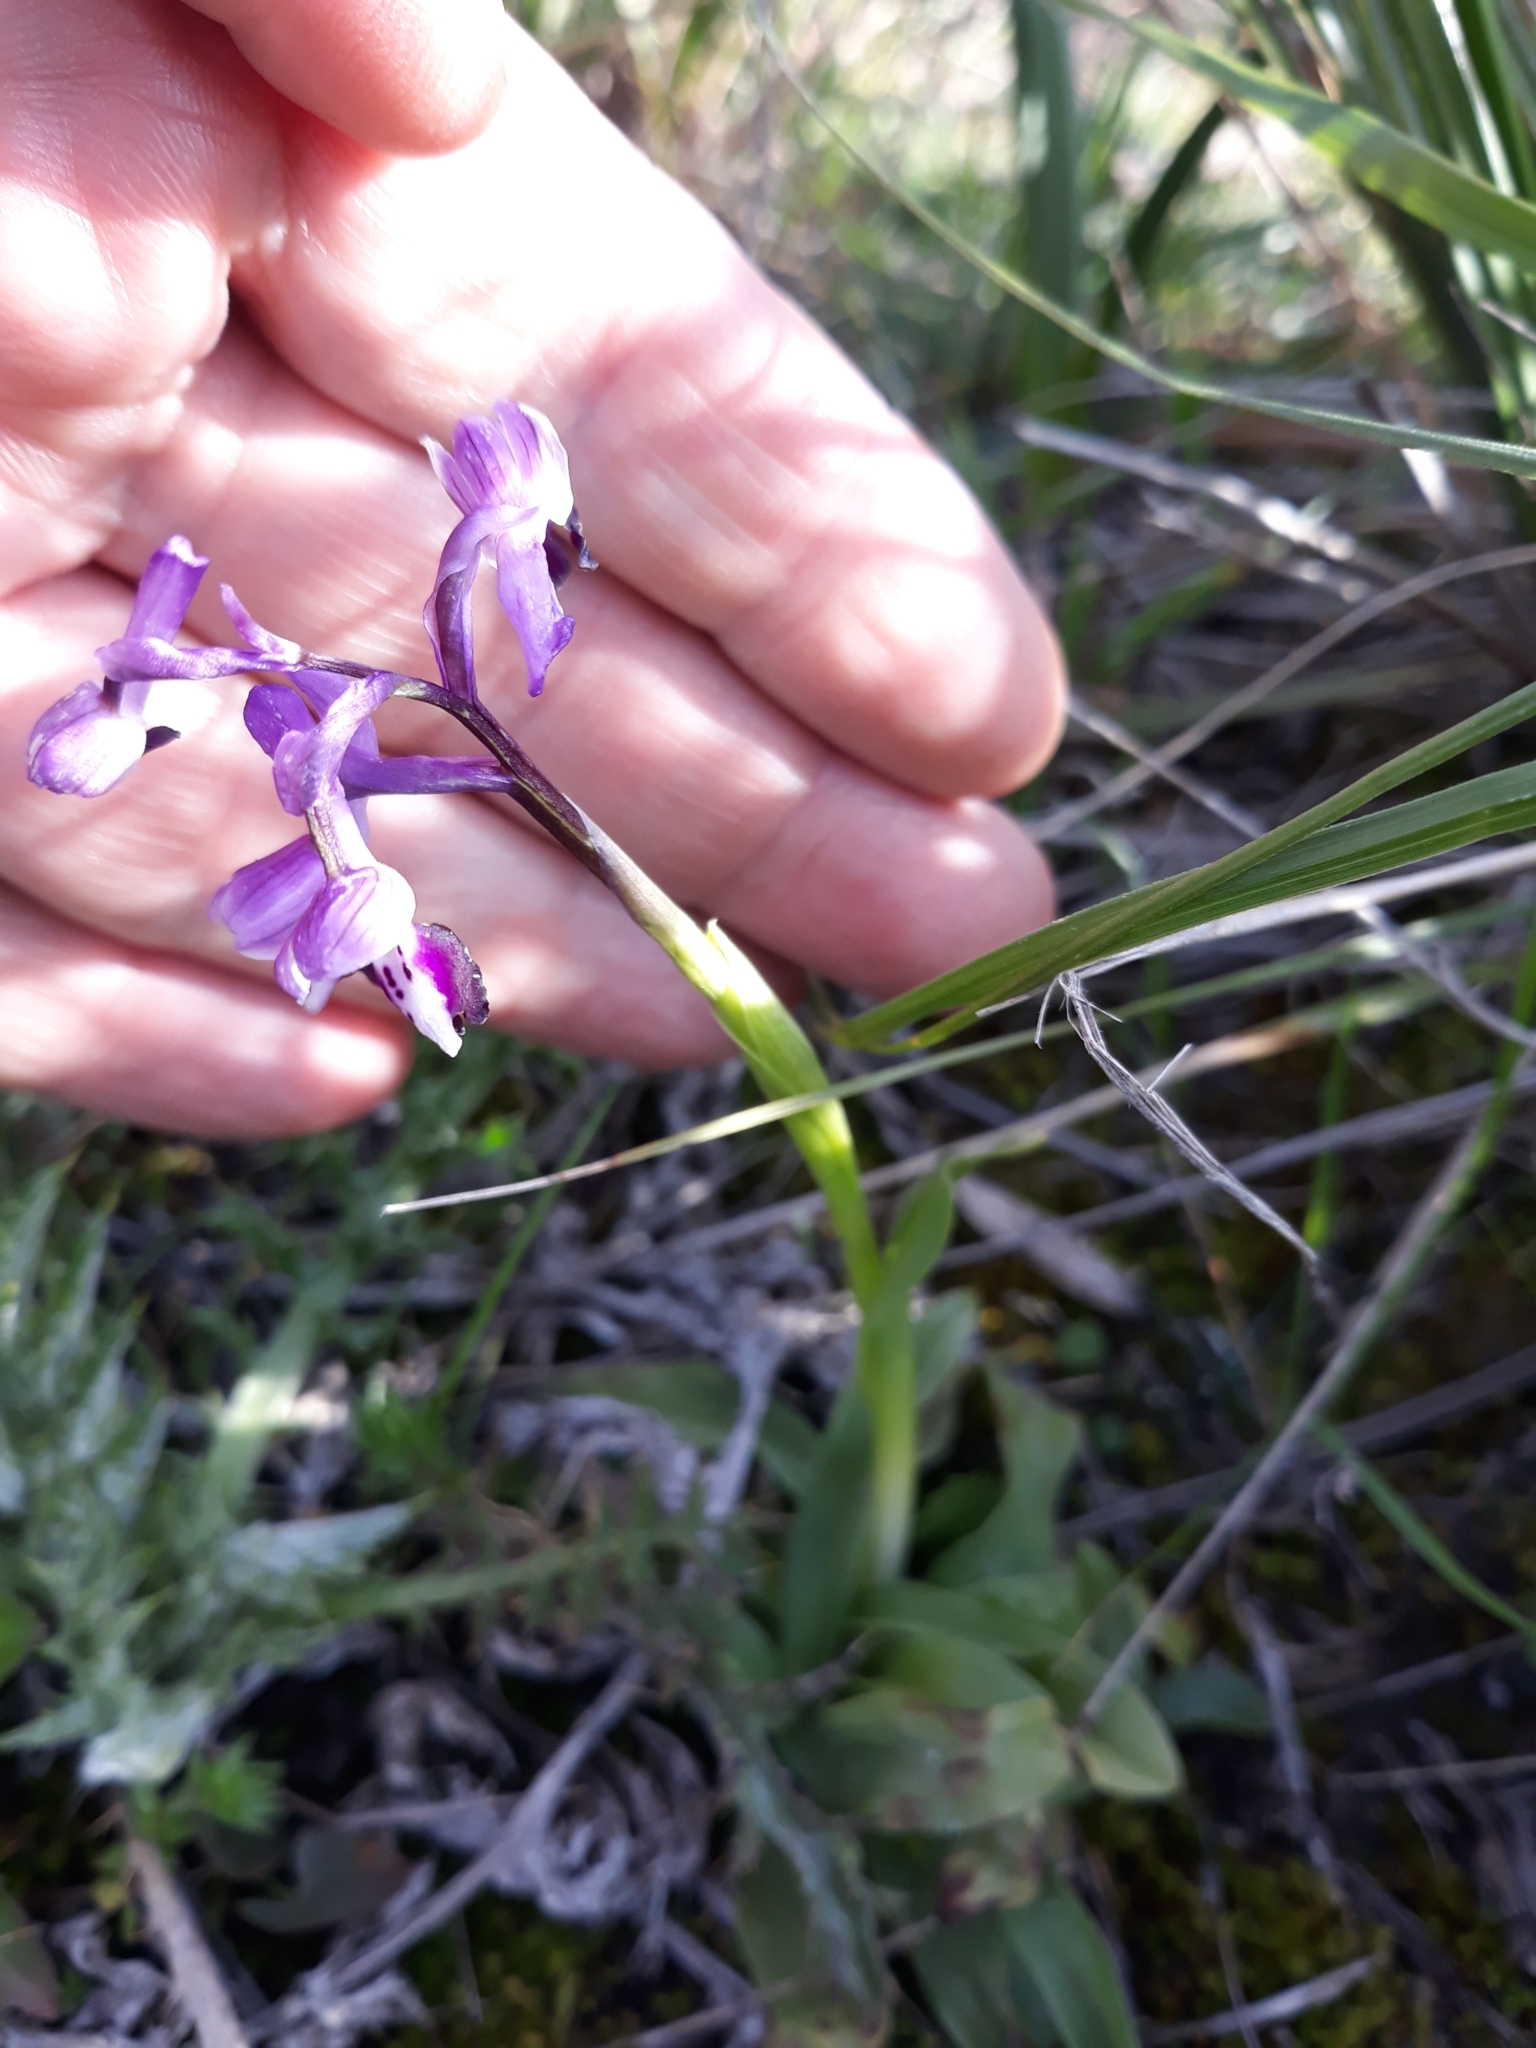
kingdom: Plantae
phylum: Tracheophyta
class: Liliopsida
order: Asparagales
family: Orchidaceae
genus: Anacamptis
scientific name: Anacamptis morio
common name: Green-winged orchid
